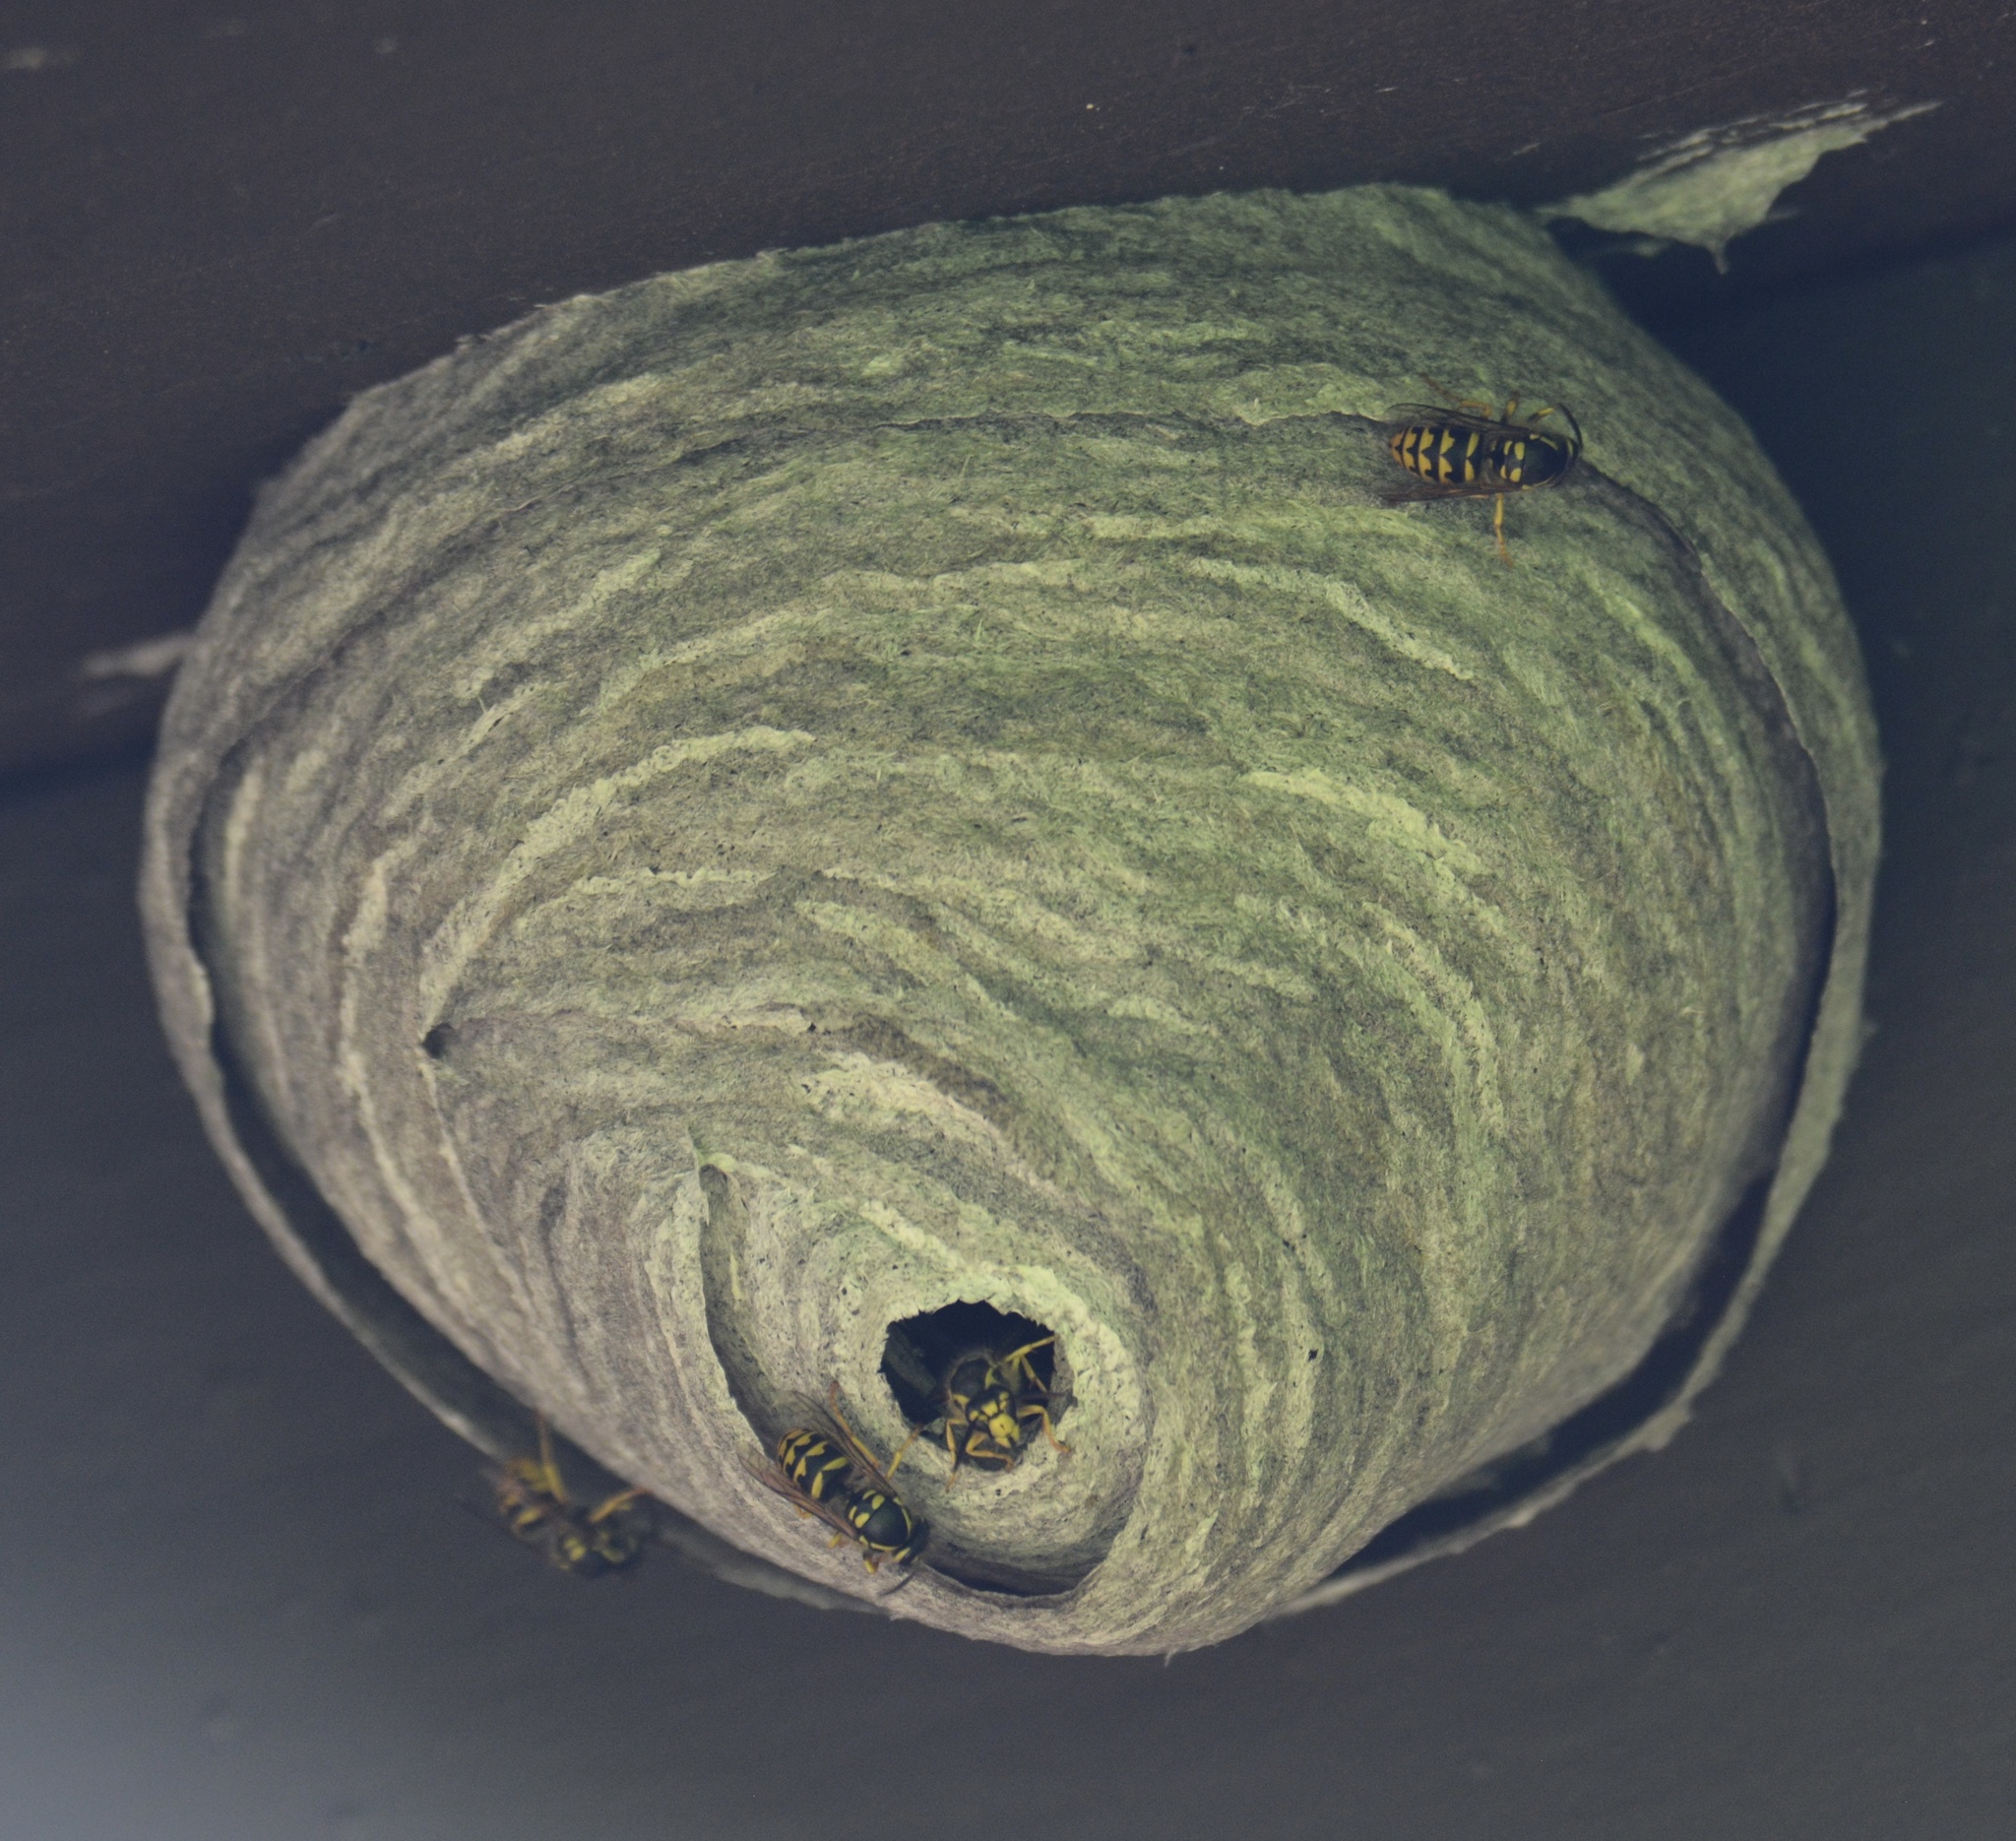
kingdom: Animalia
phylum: Arthropoda
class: Insecta
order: Hymenoptera
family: Vespidae
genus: Dolichovespula
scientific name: Dolichovespula arenaria
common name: Aerial yellowjacket
